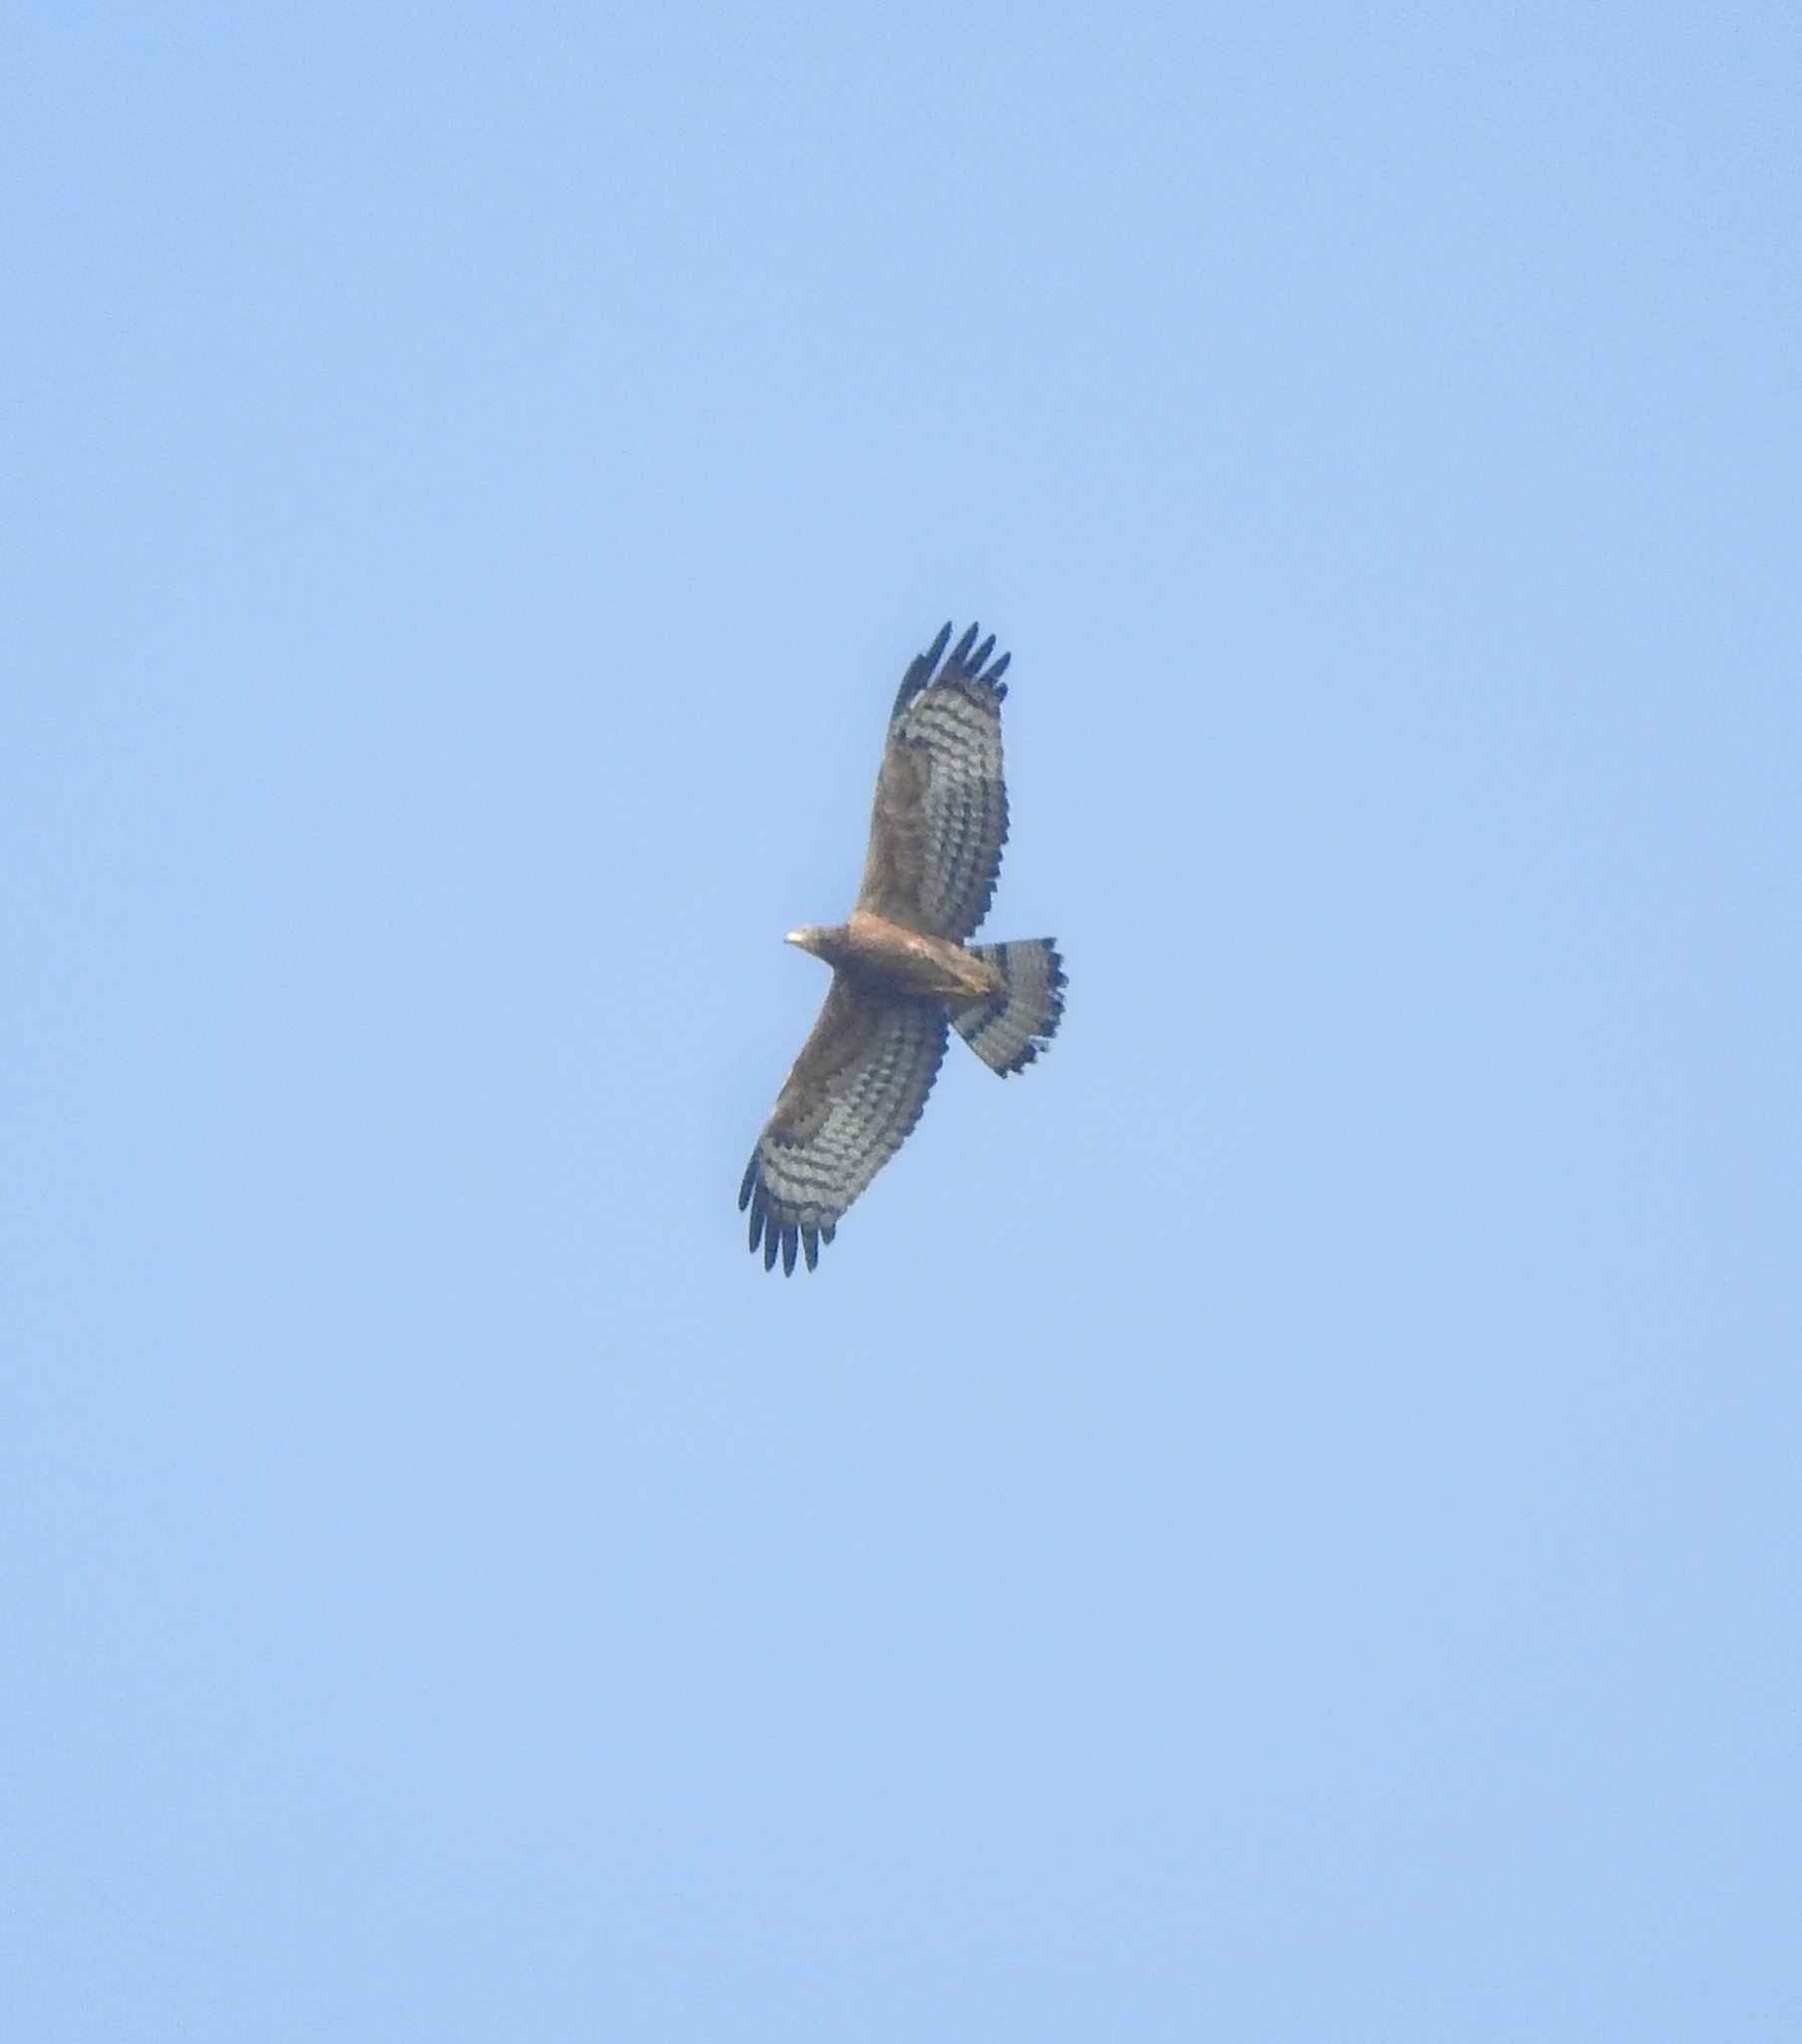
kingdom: Animalia
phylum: Chordata
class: Aves
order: Accipitriformes
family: Accipitridae
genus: Pernis
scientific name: Pernis ptilorhynchus
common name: Crested honey buzzard
